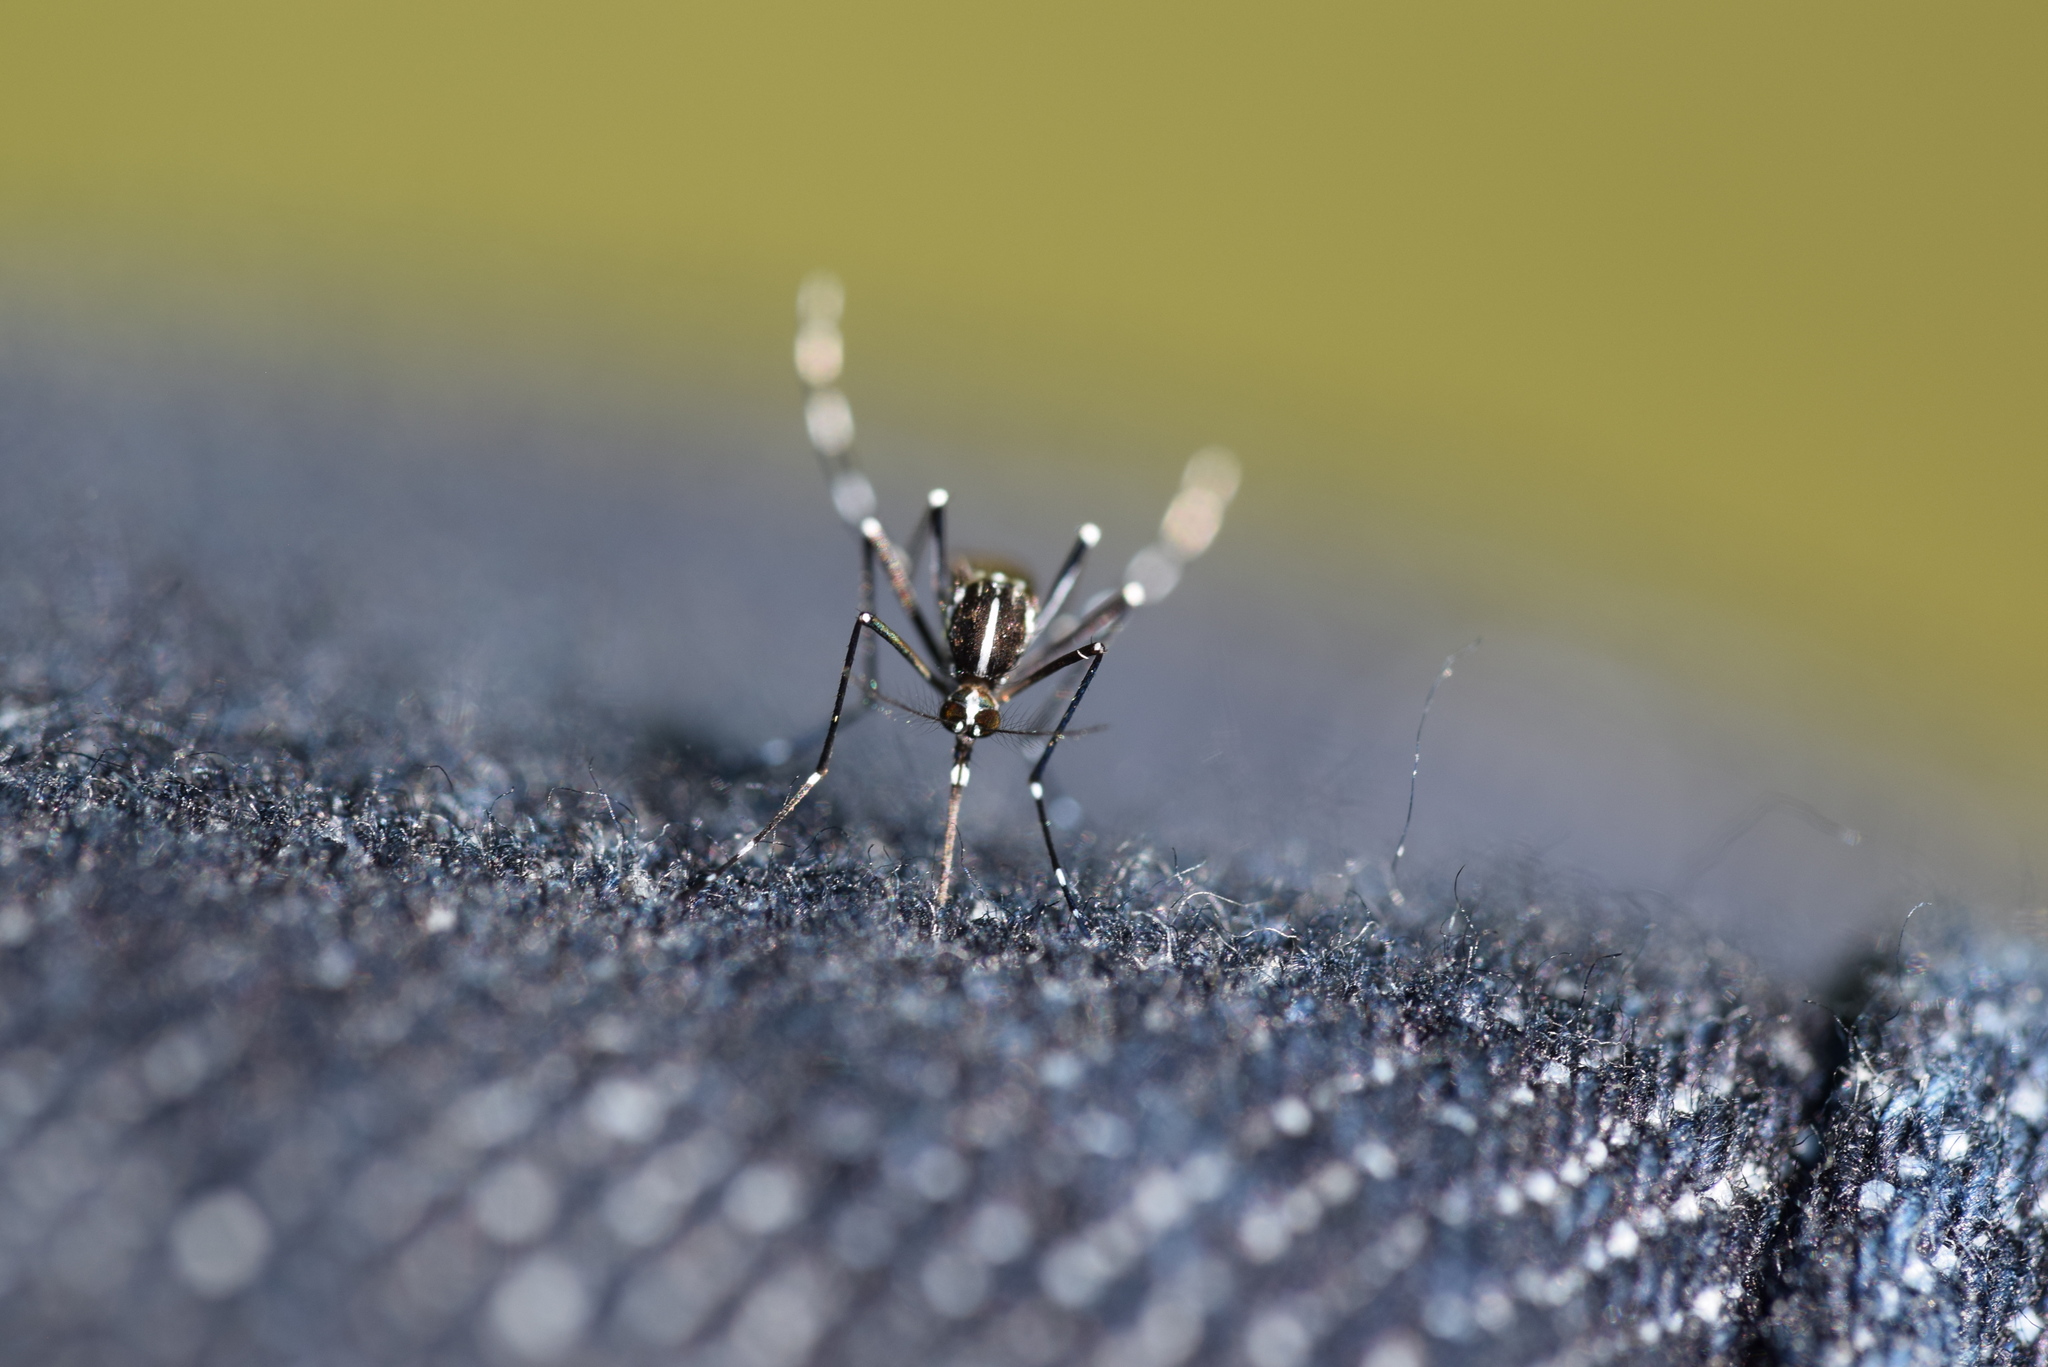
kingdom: Animalia
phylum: Arthropoda
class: Insecta
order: Diptera
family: Culicidae
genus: Aedes
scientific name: Aedes albopictus
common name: Tiger mosquito
